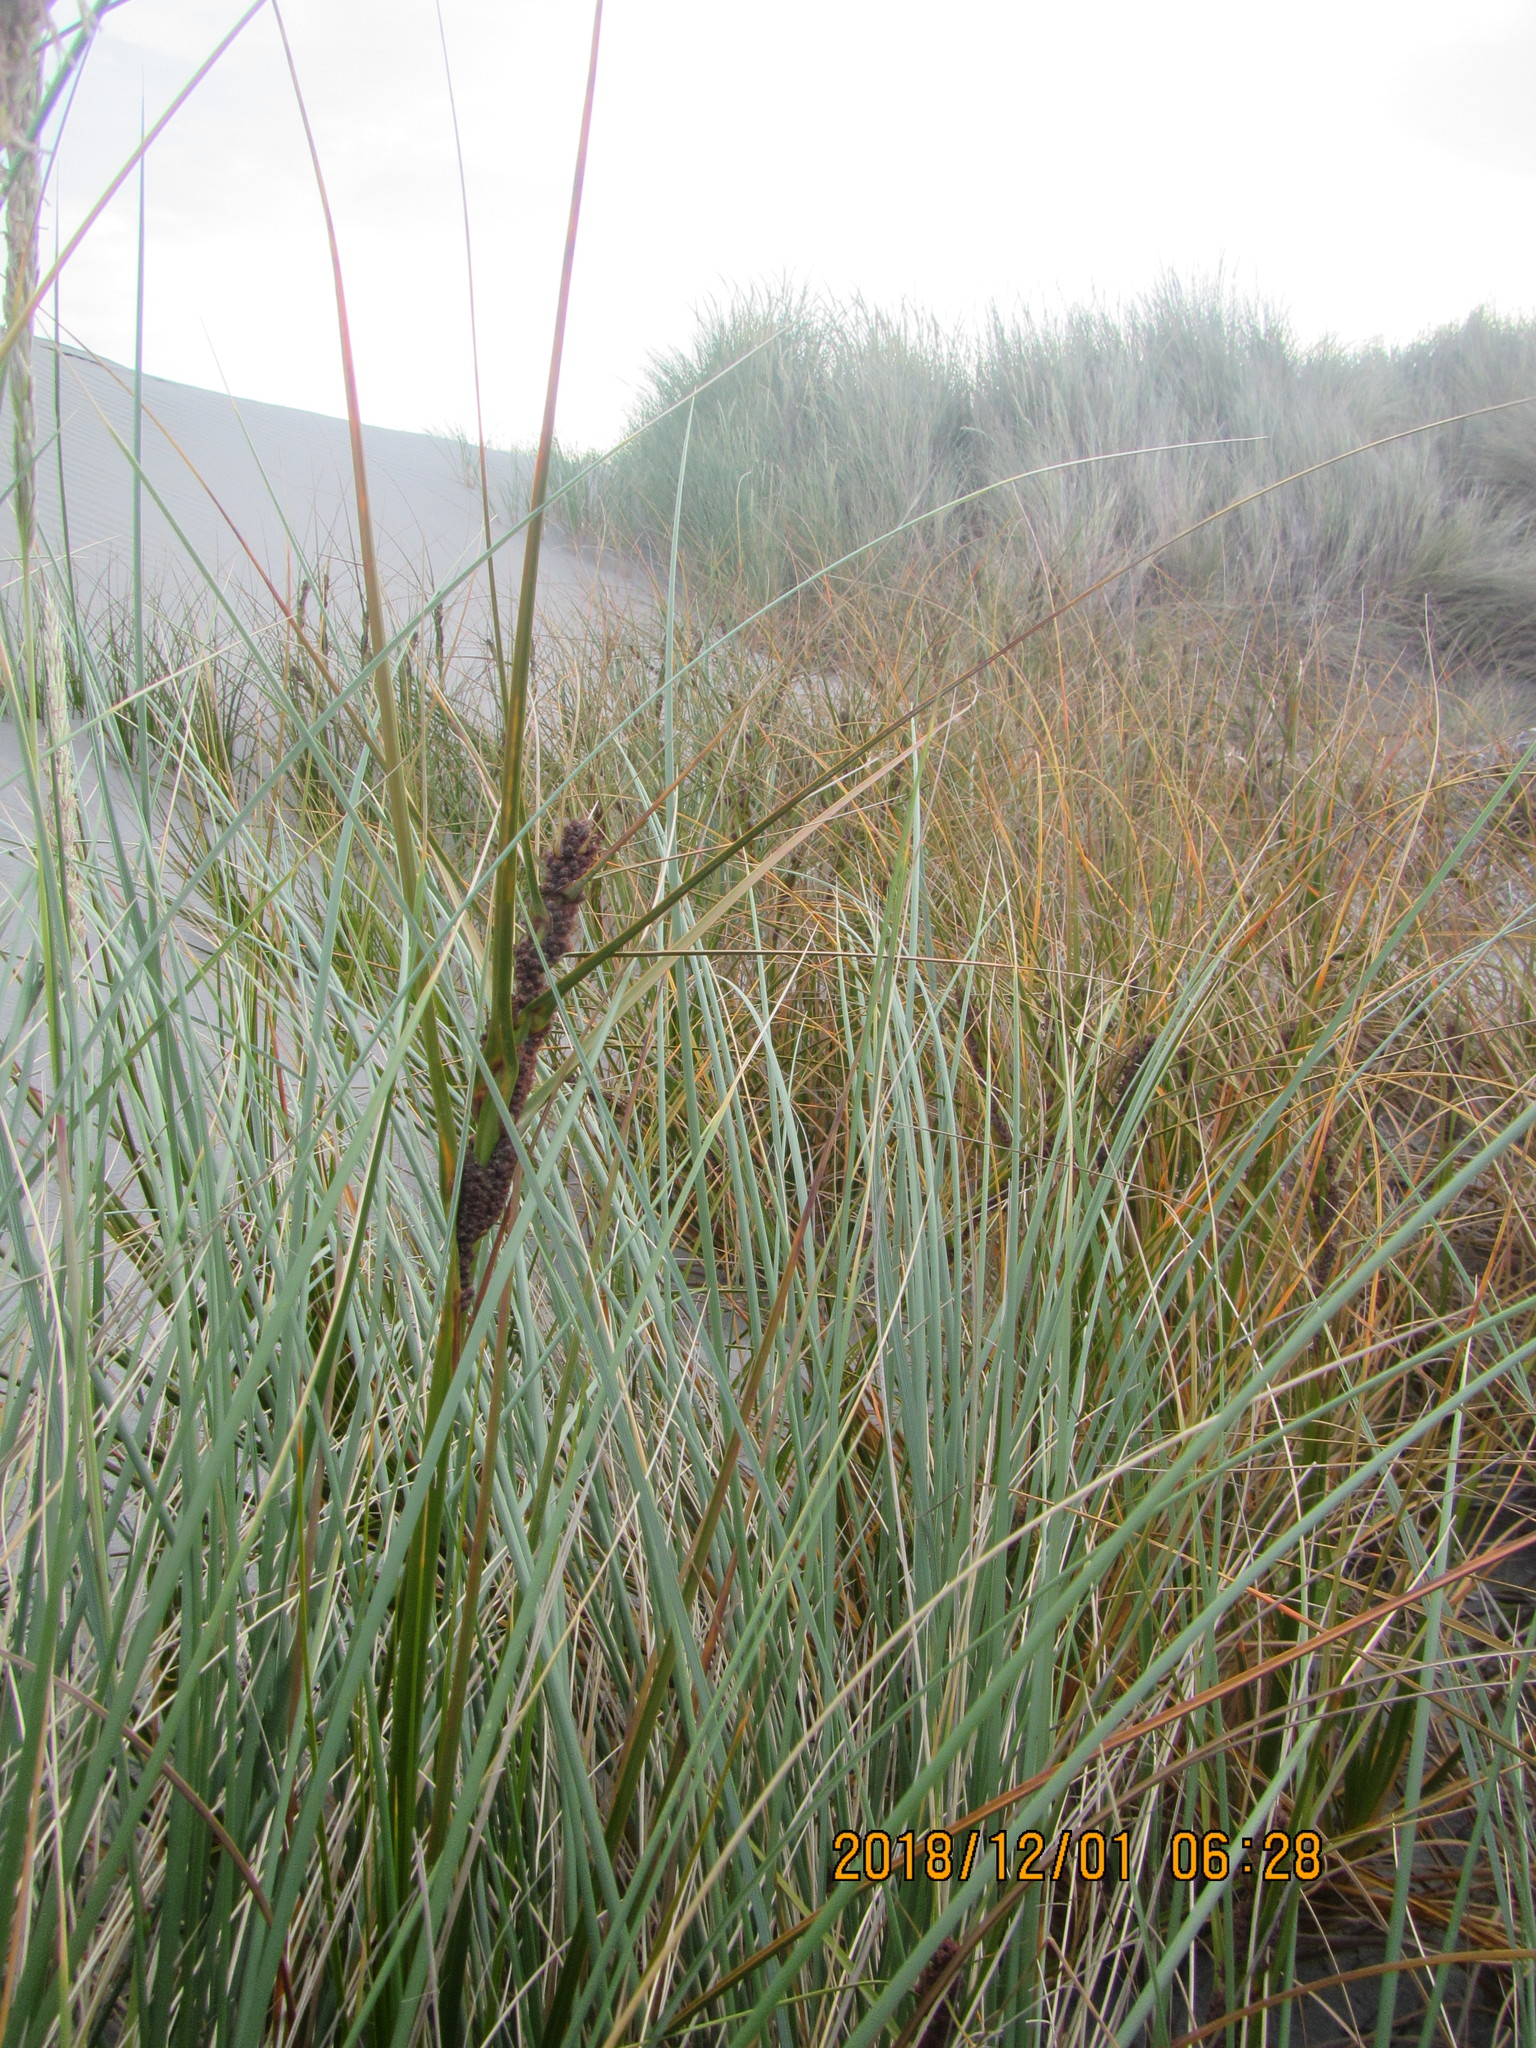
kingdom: Plantae
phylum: Tracheophyta
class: Liliopsida
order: Poales
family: Cyperaceae
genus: Ficinia
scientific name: Ficinia spiralis
